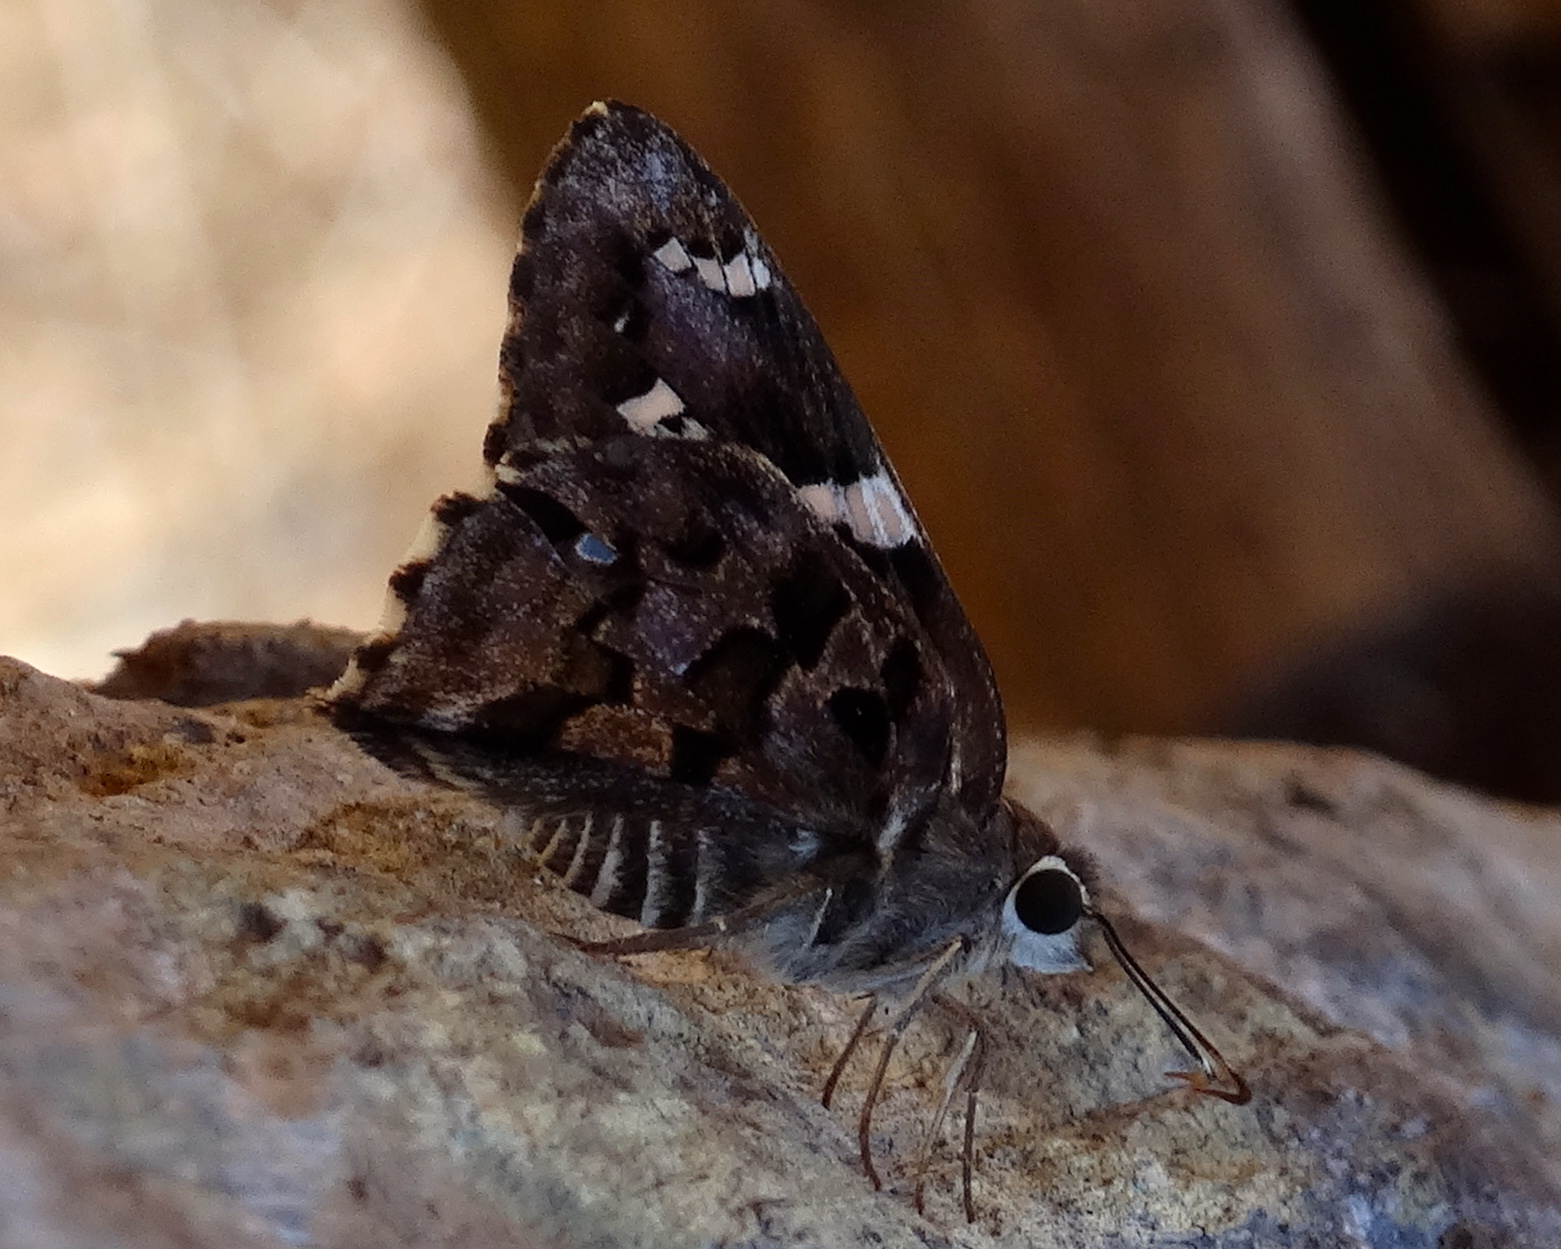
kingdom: Animalia
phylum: Arthropoda
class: Insecta
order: Lepidoptera
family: Hesperiidae
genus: Codatractus
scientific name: Codatractus melon
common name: Melon mottled-skipper
